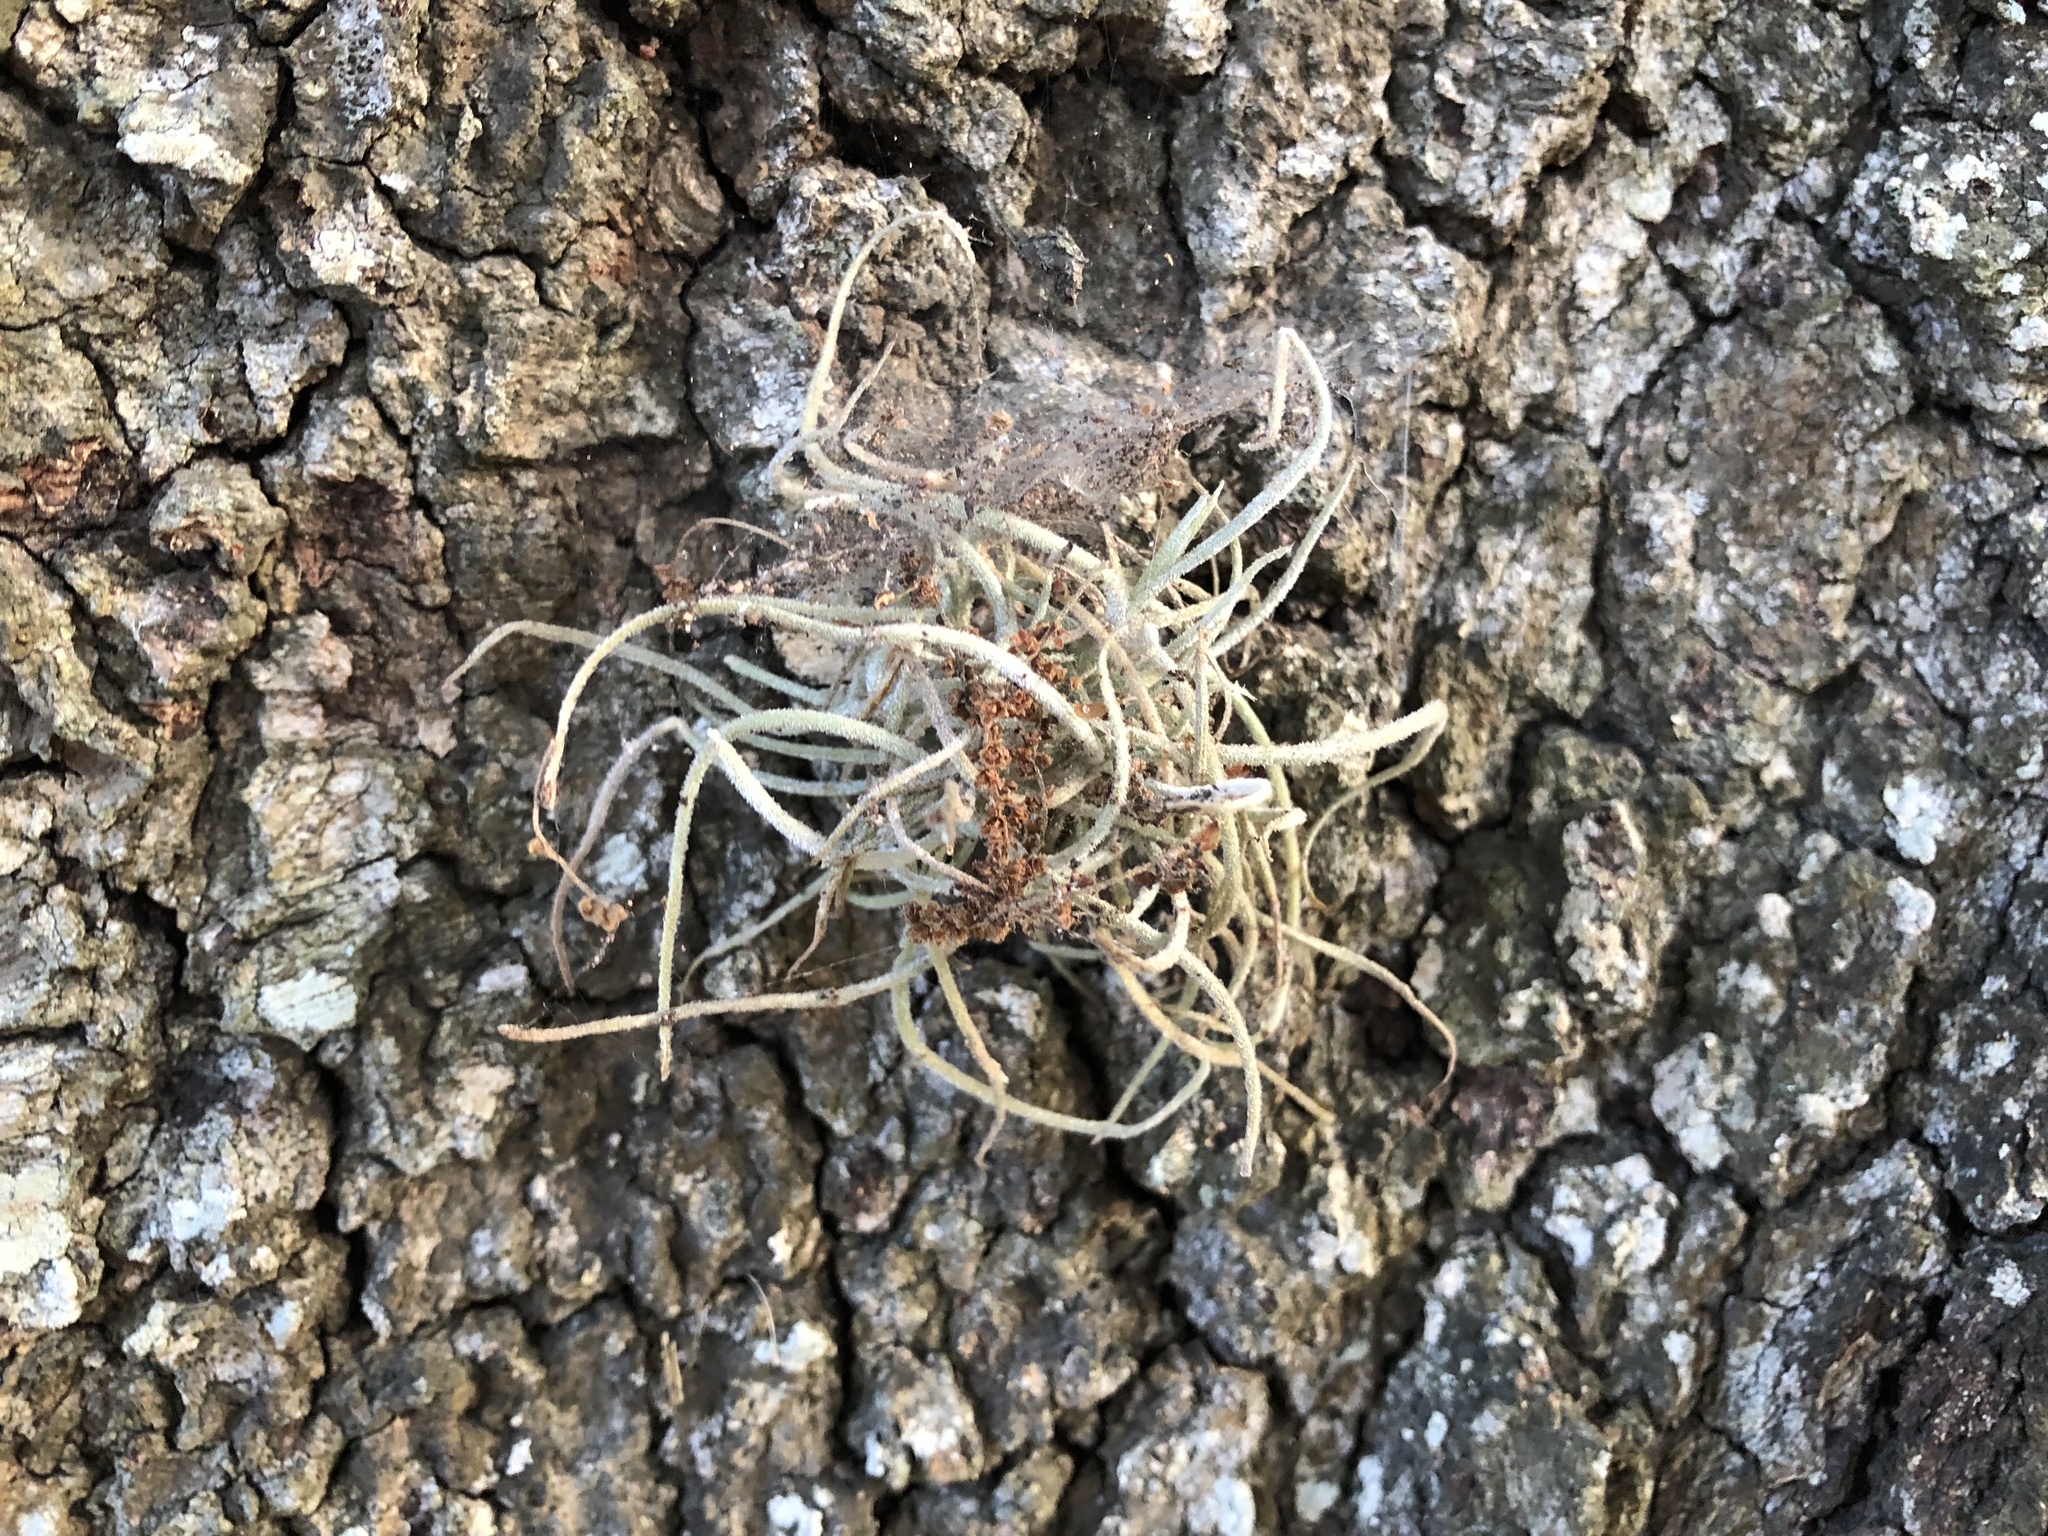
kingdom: Plantae
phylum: Tracheophyta
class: Liliopsida
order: Poales
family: Bromeliaceae
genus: Tillandsia
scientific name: Tillandsia recurvata
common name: Small ballmoss
